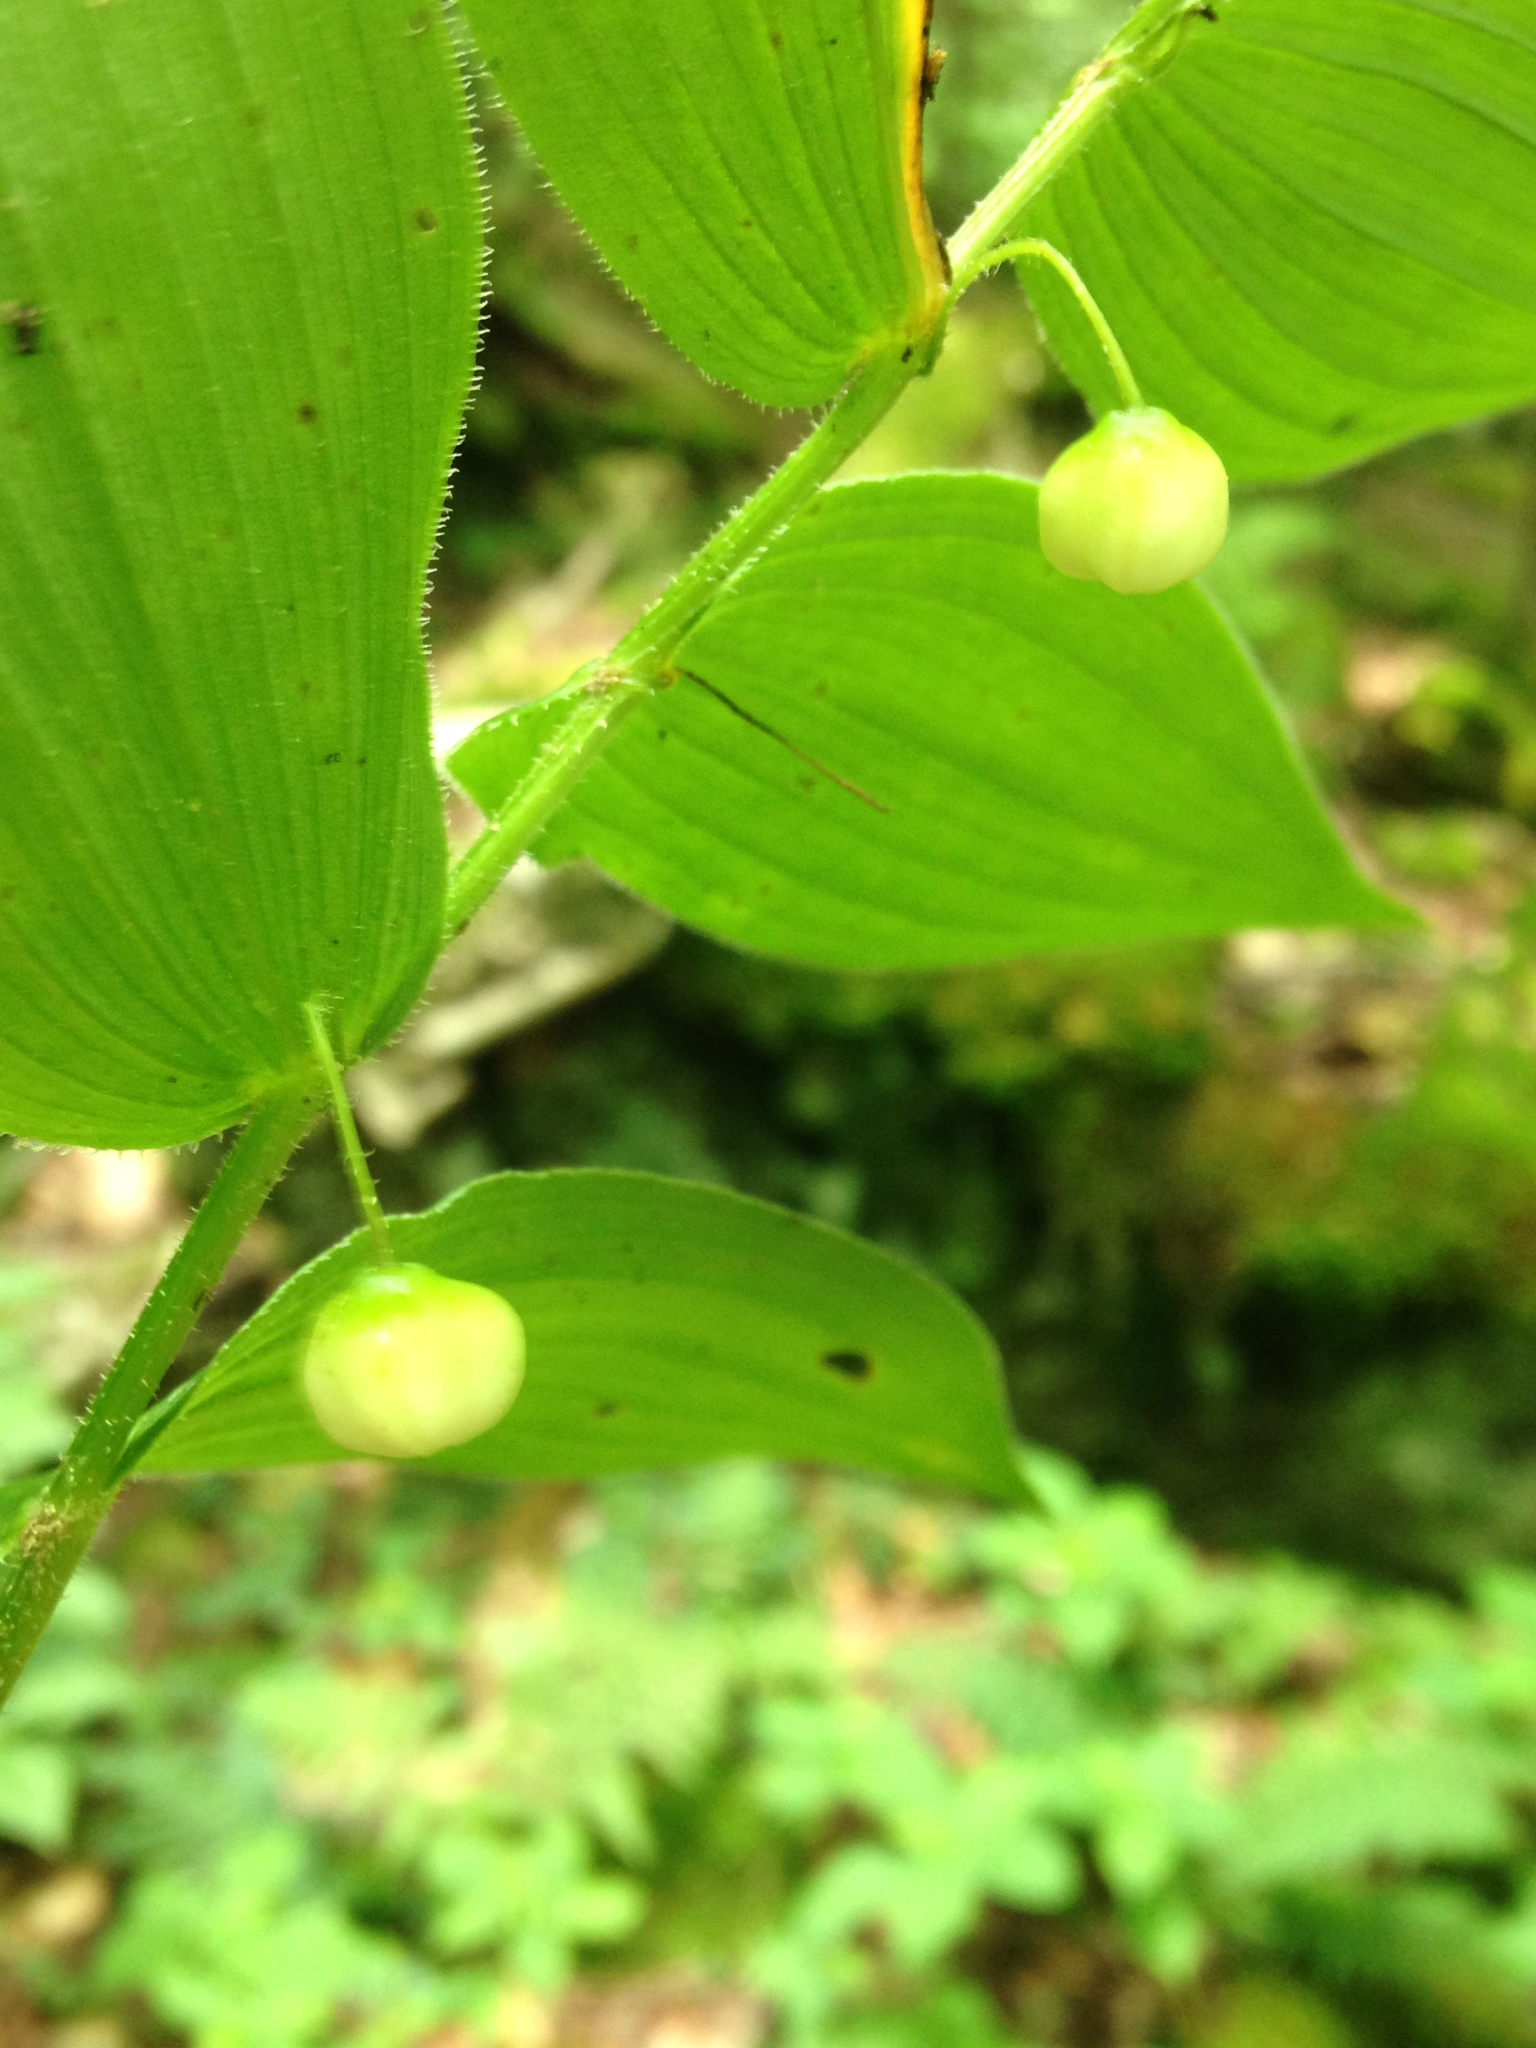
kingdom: Plantae
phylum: Tracheophyta
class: Liliopsida
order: Liliales
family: Liliaceae
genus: Streptopus
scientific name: Streptopus lanceolatus
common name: Rose mandarin
